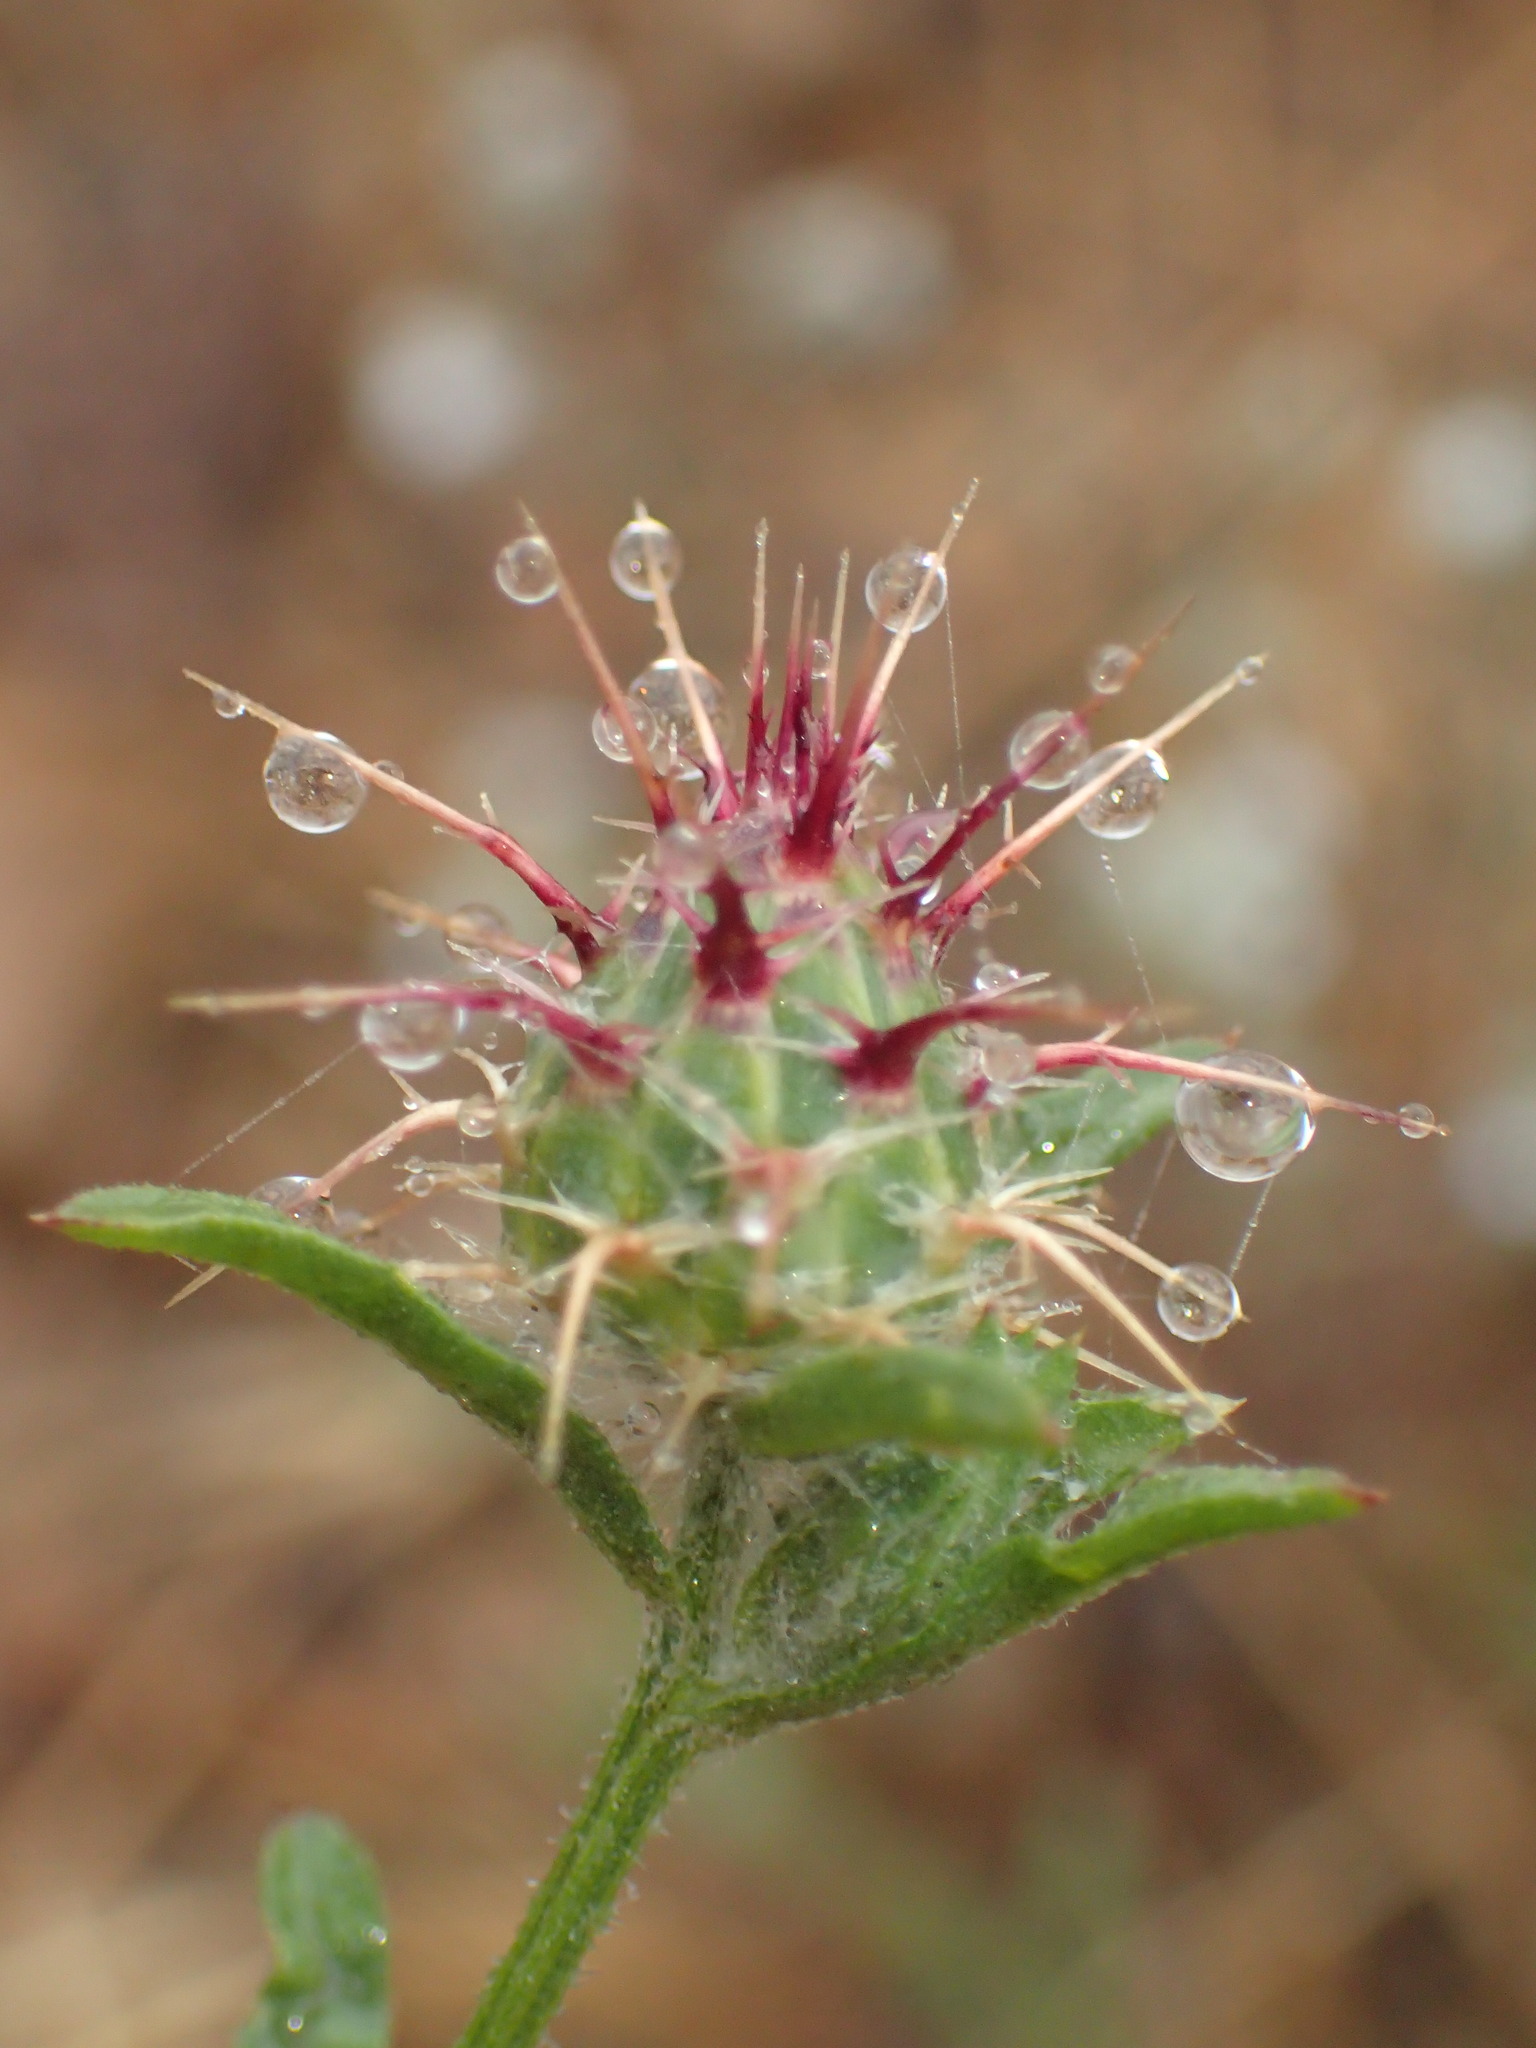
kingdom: Plantae
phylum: Tracheophyta
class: Magnoliopsida
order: Asterales
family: Asteraceae
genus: Centaurea
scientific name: Centaurea melitensis
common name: Maltese star-thistle
